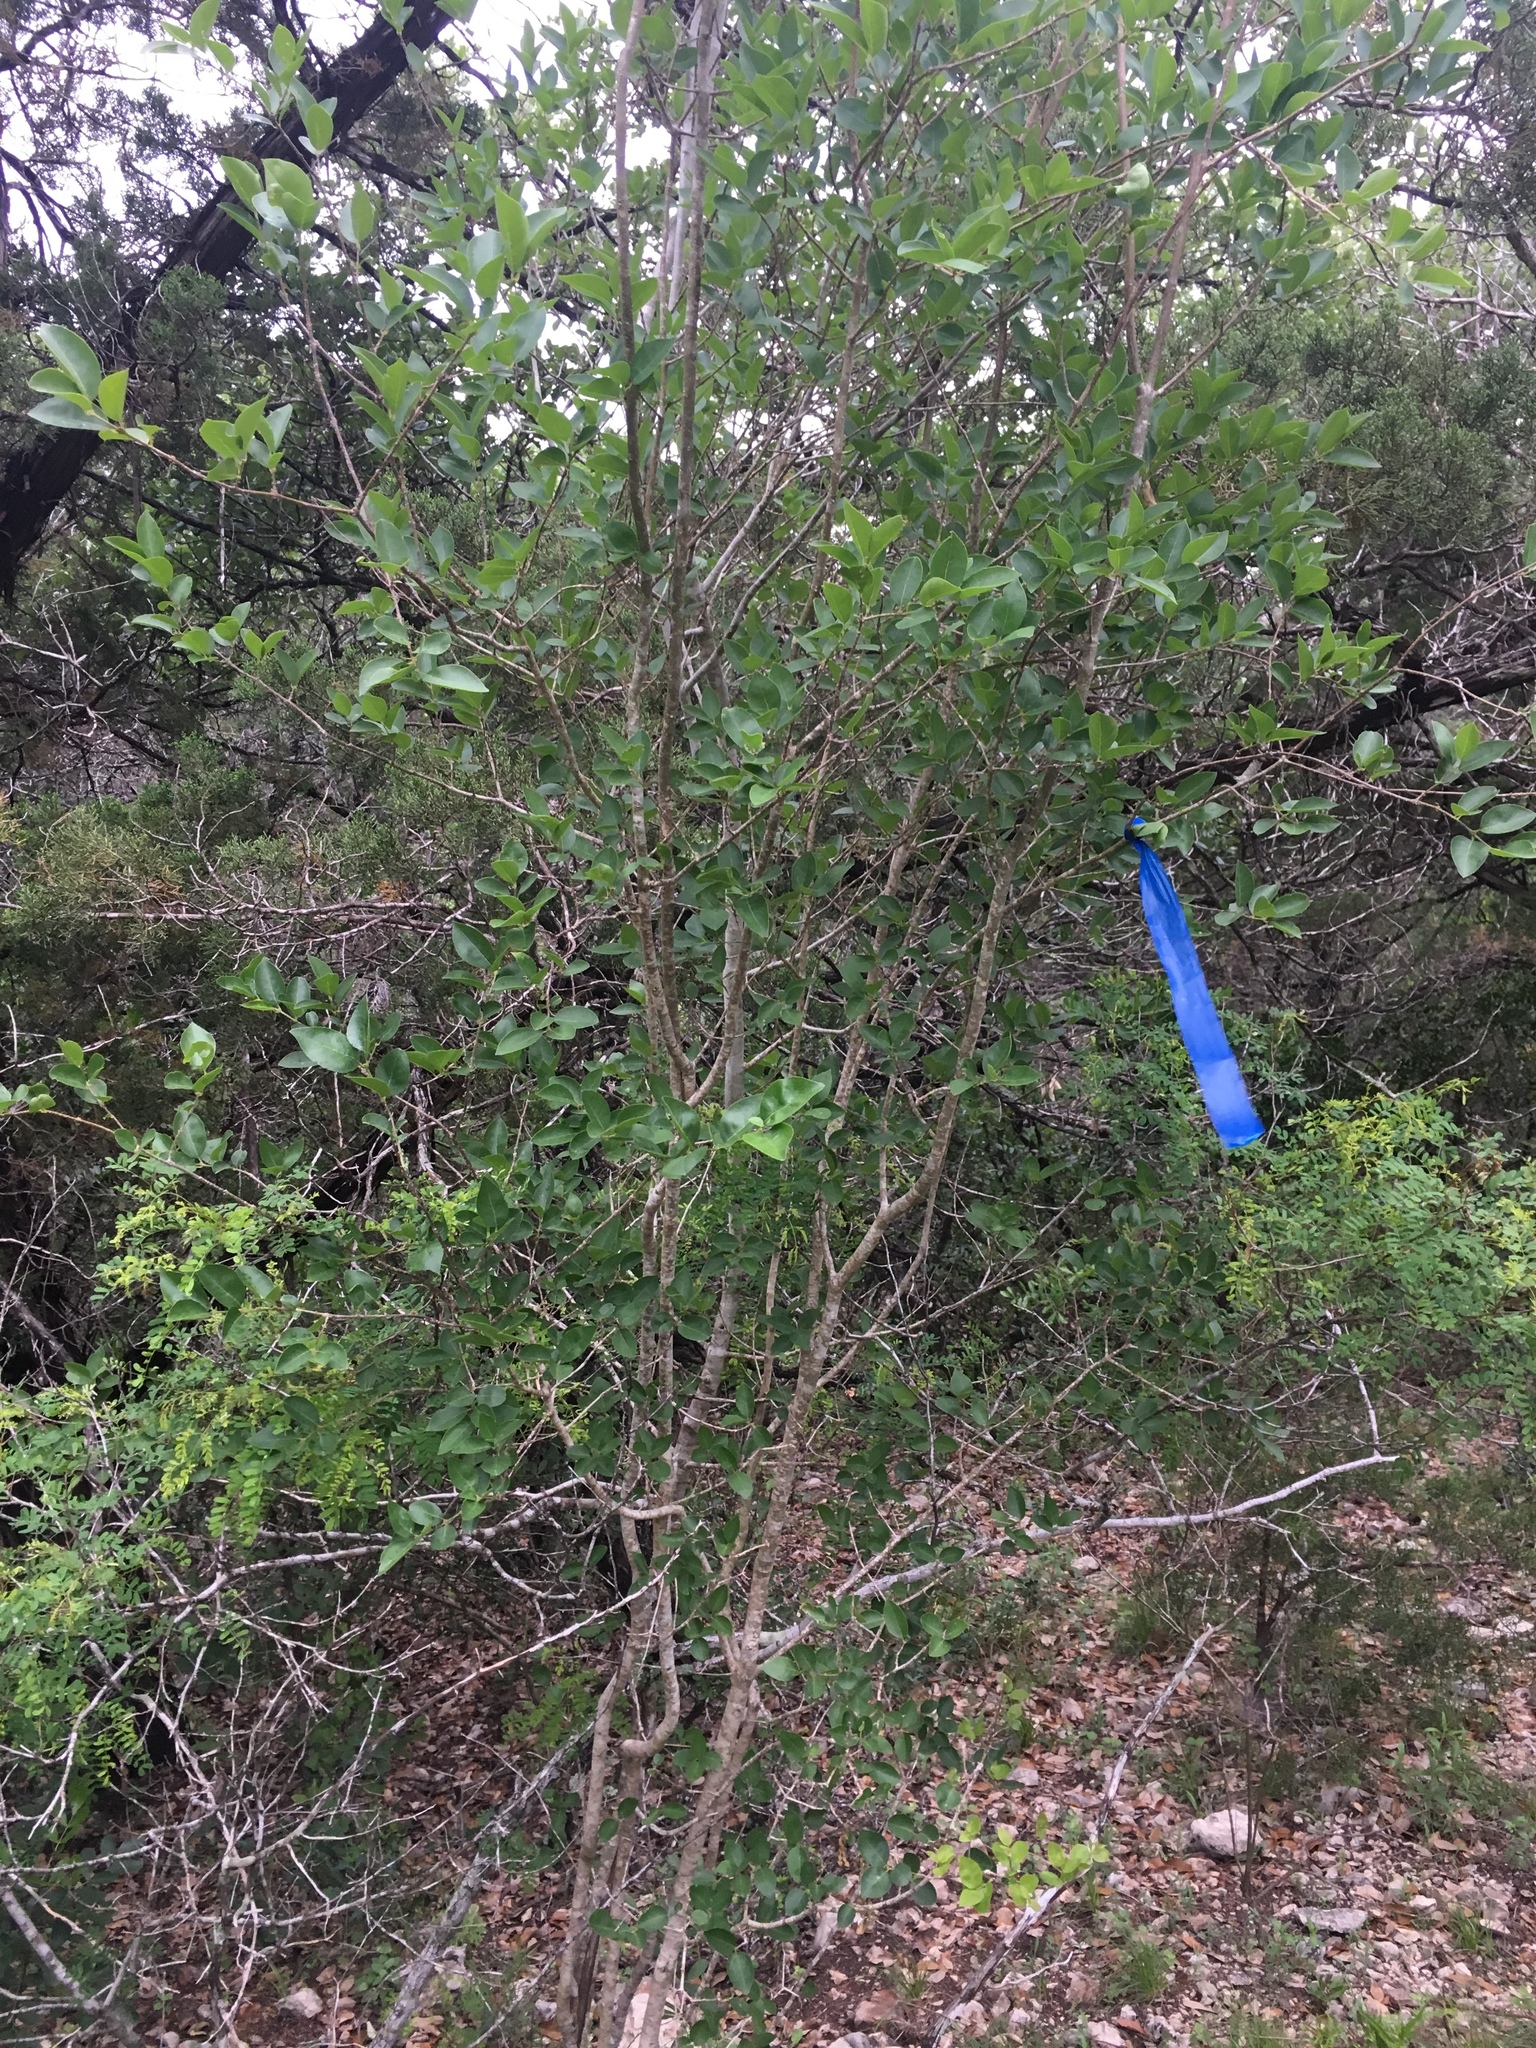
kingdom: Plantae
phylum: Tracheophyta
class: Magnoliopsida
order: Lamiales
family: Oleaceae
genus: Forestiera
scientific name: Forestiera reticulata
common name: Netleaf swamp-privet
